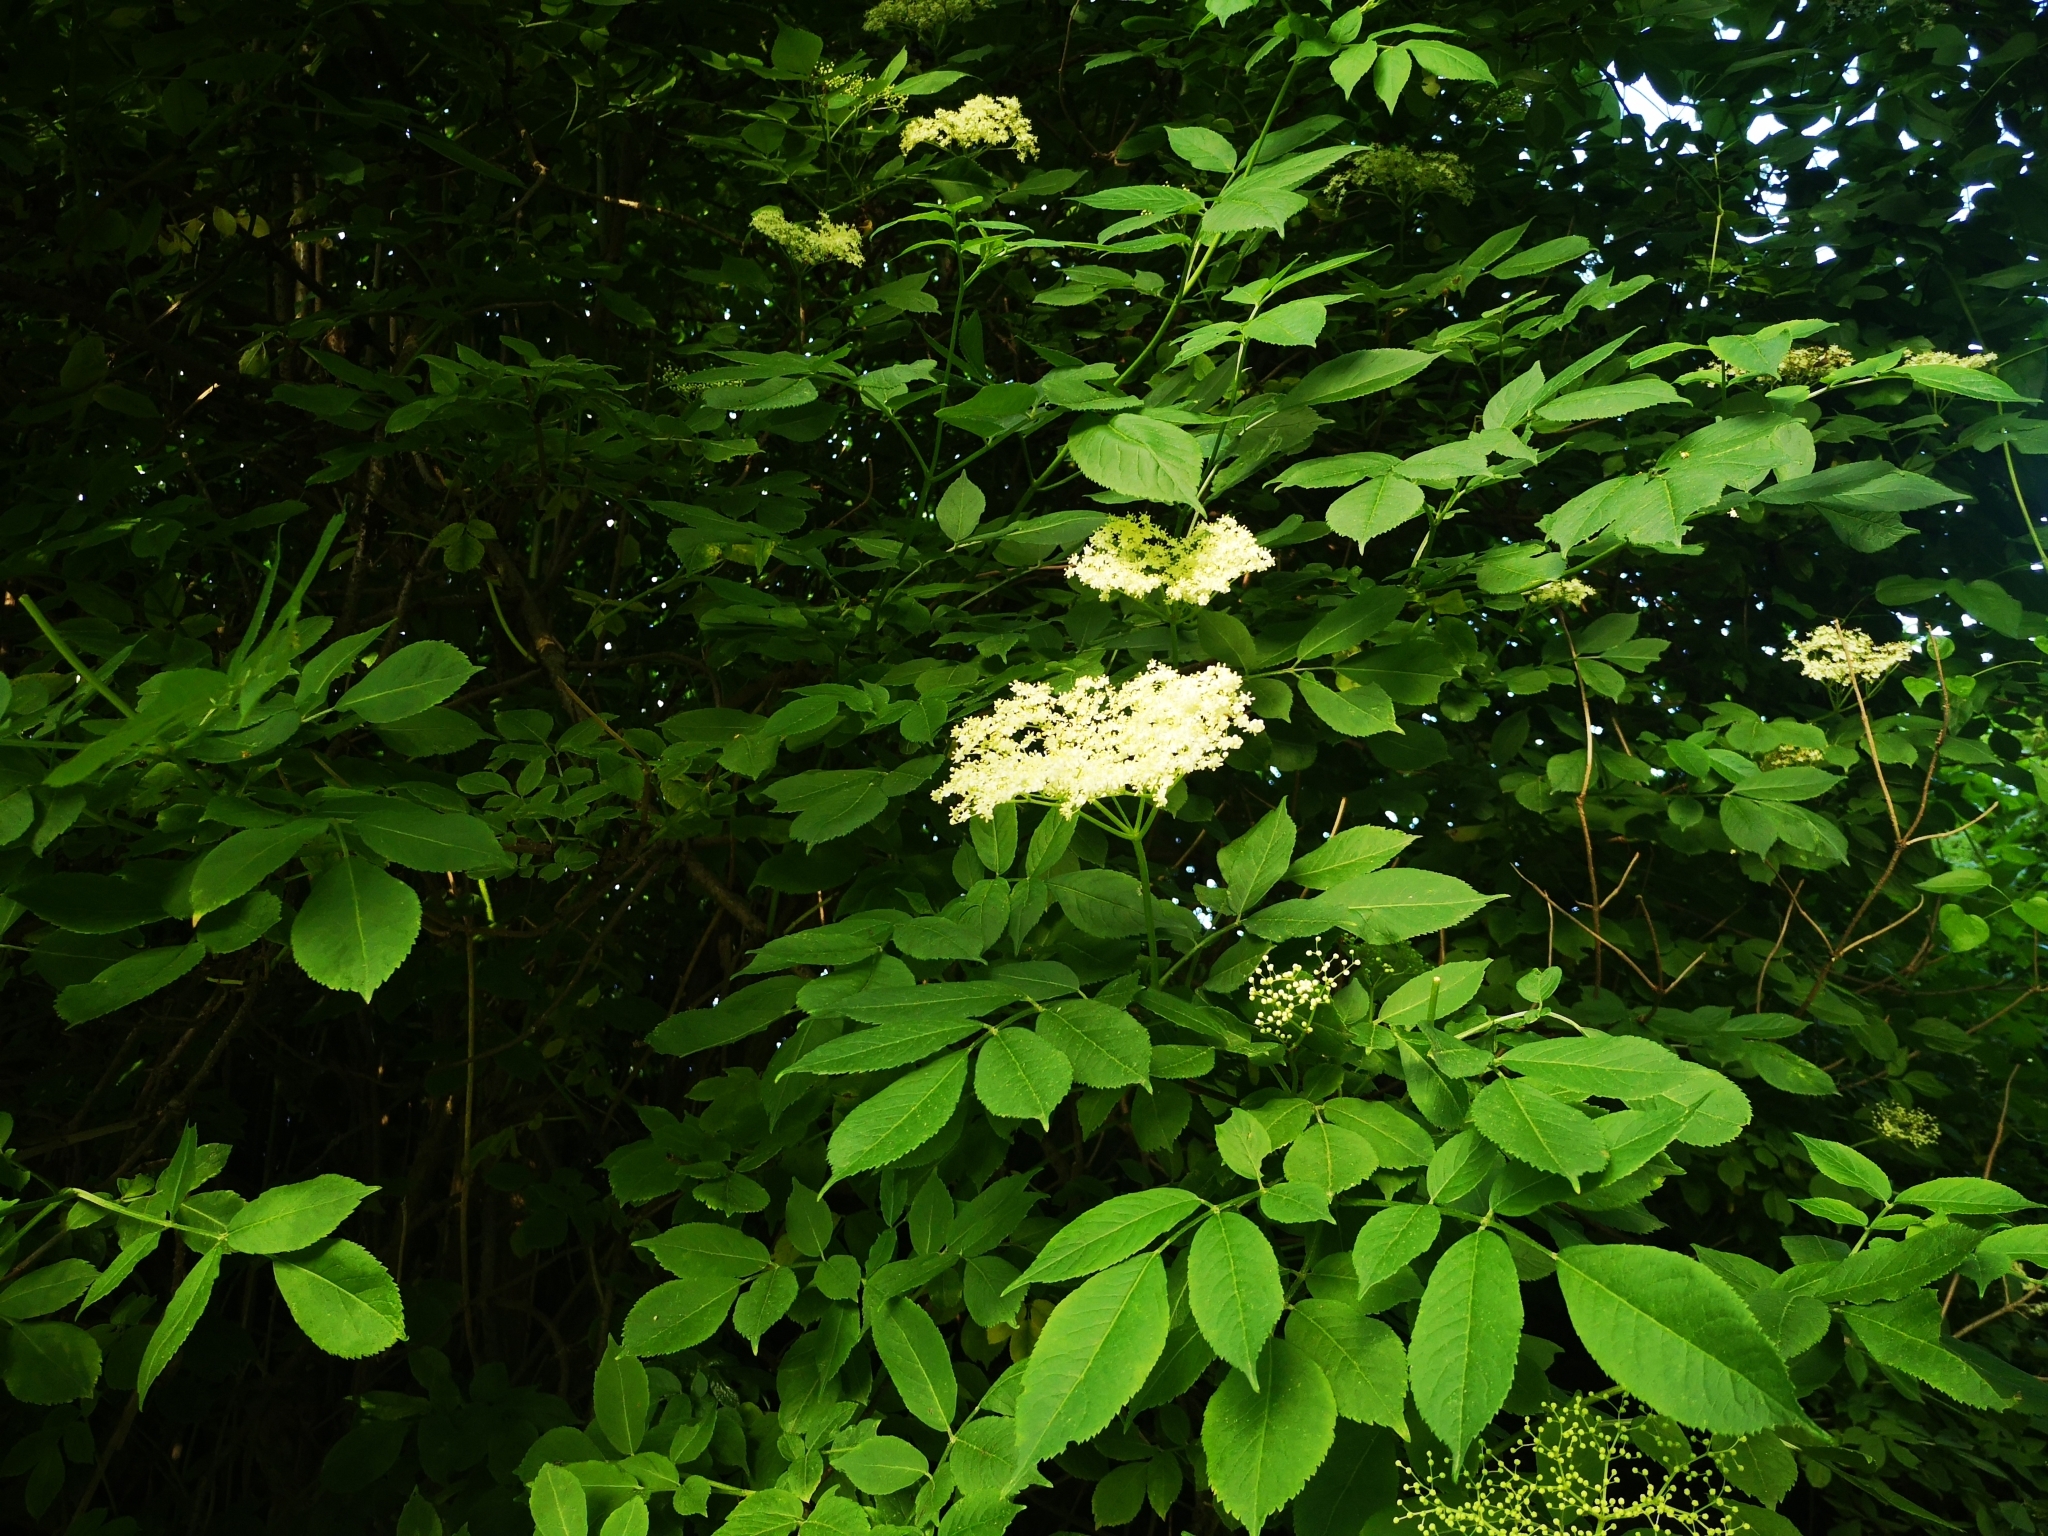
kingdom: Plantae
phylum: Tracheophyta
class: Magnoliopsida
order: Dipsacales
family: Viburnaceae
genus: Sambucus
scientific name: Sambucus nigra
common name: Elder
